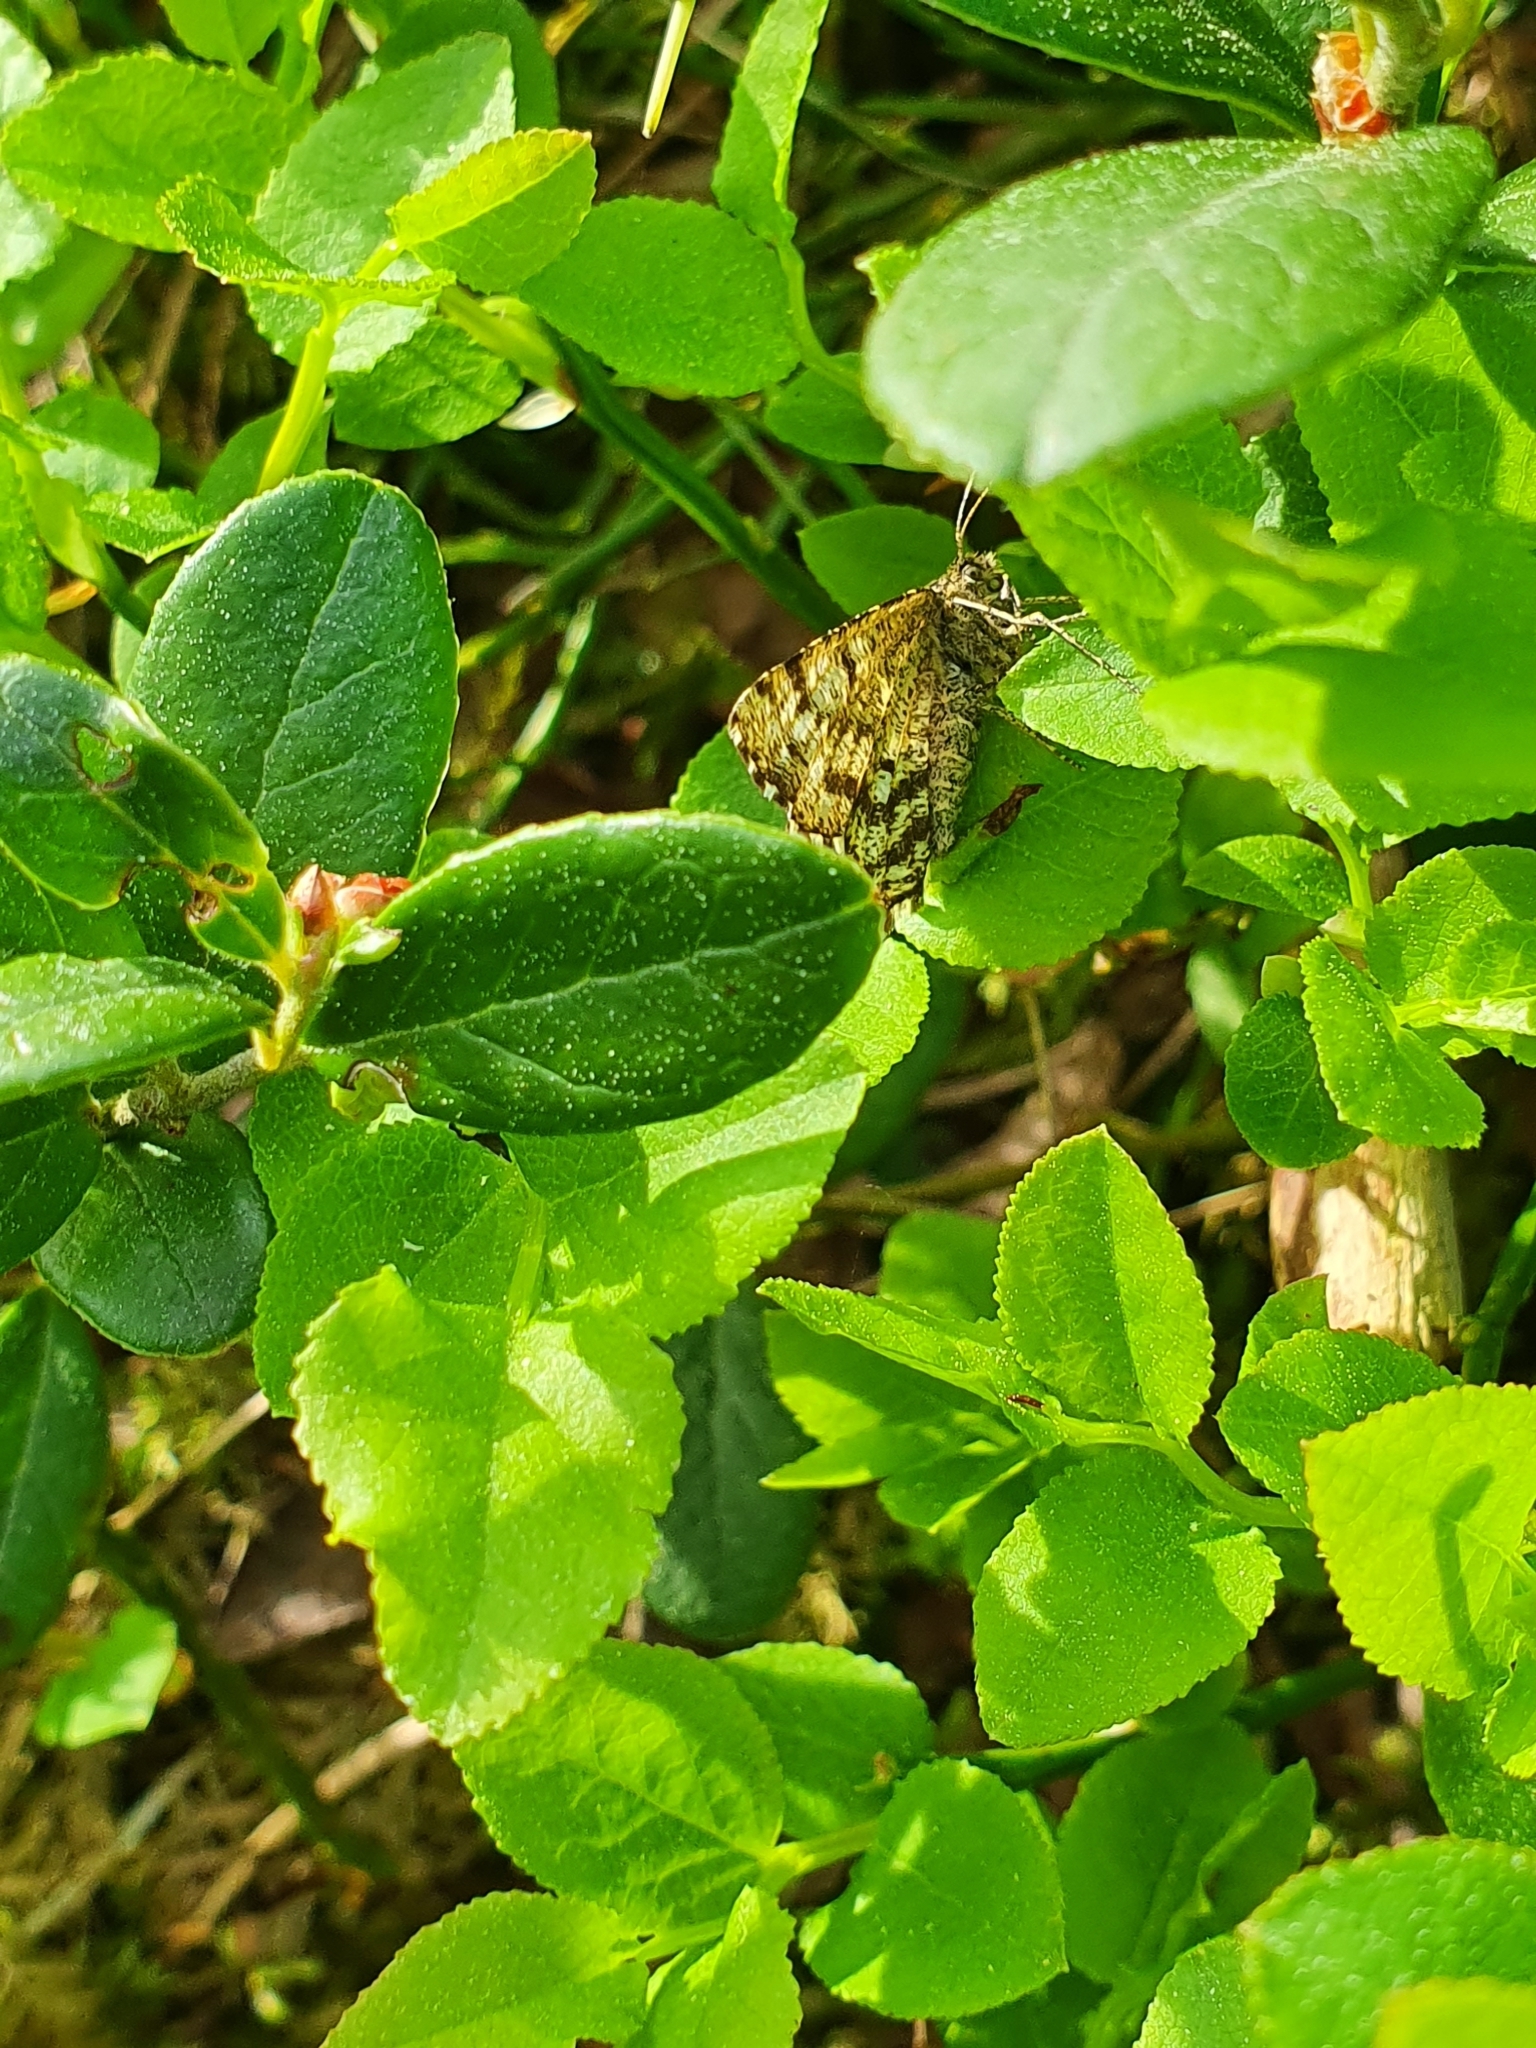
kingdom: Animalia
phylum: Arthropoda
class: Insecta
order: Lepidoptera
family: Geometridae
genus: Ematurga
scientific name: Ematurga atomaria
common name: Common heath
